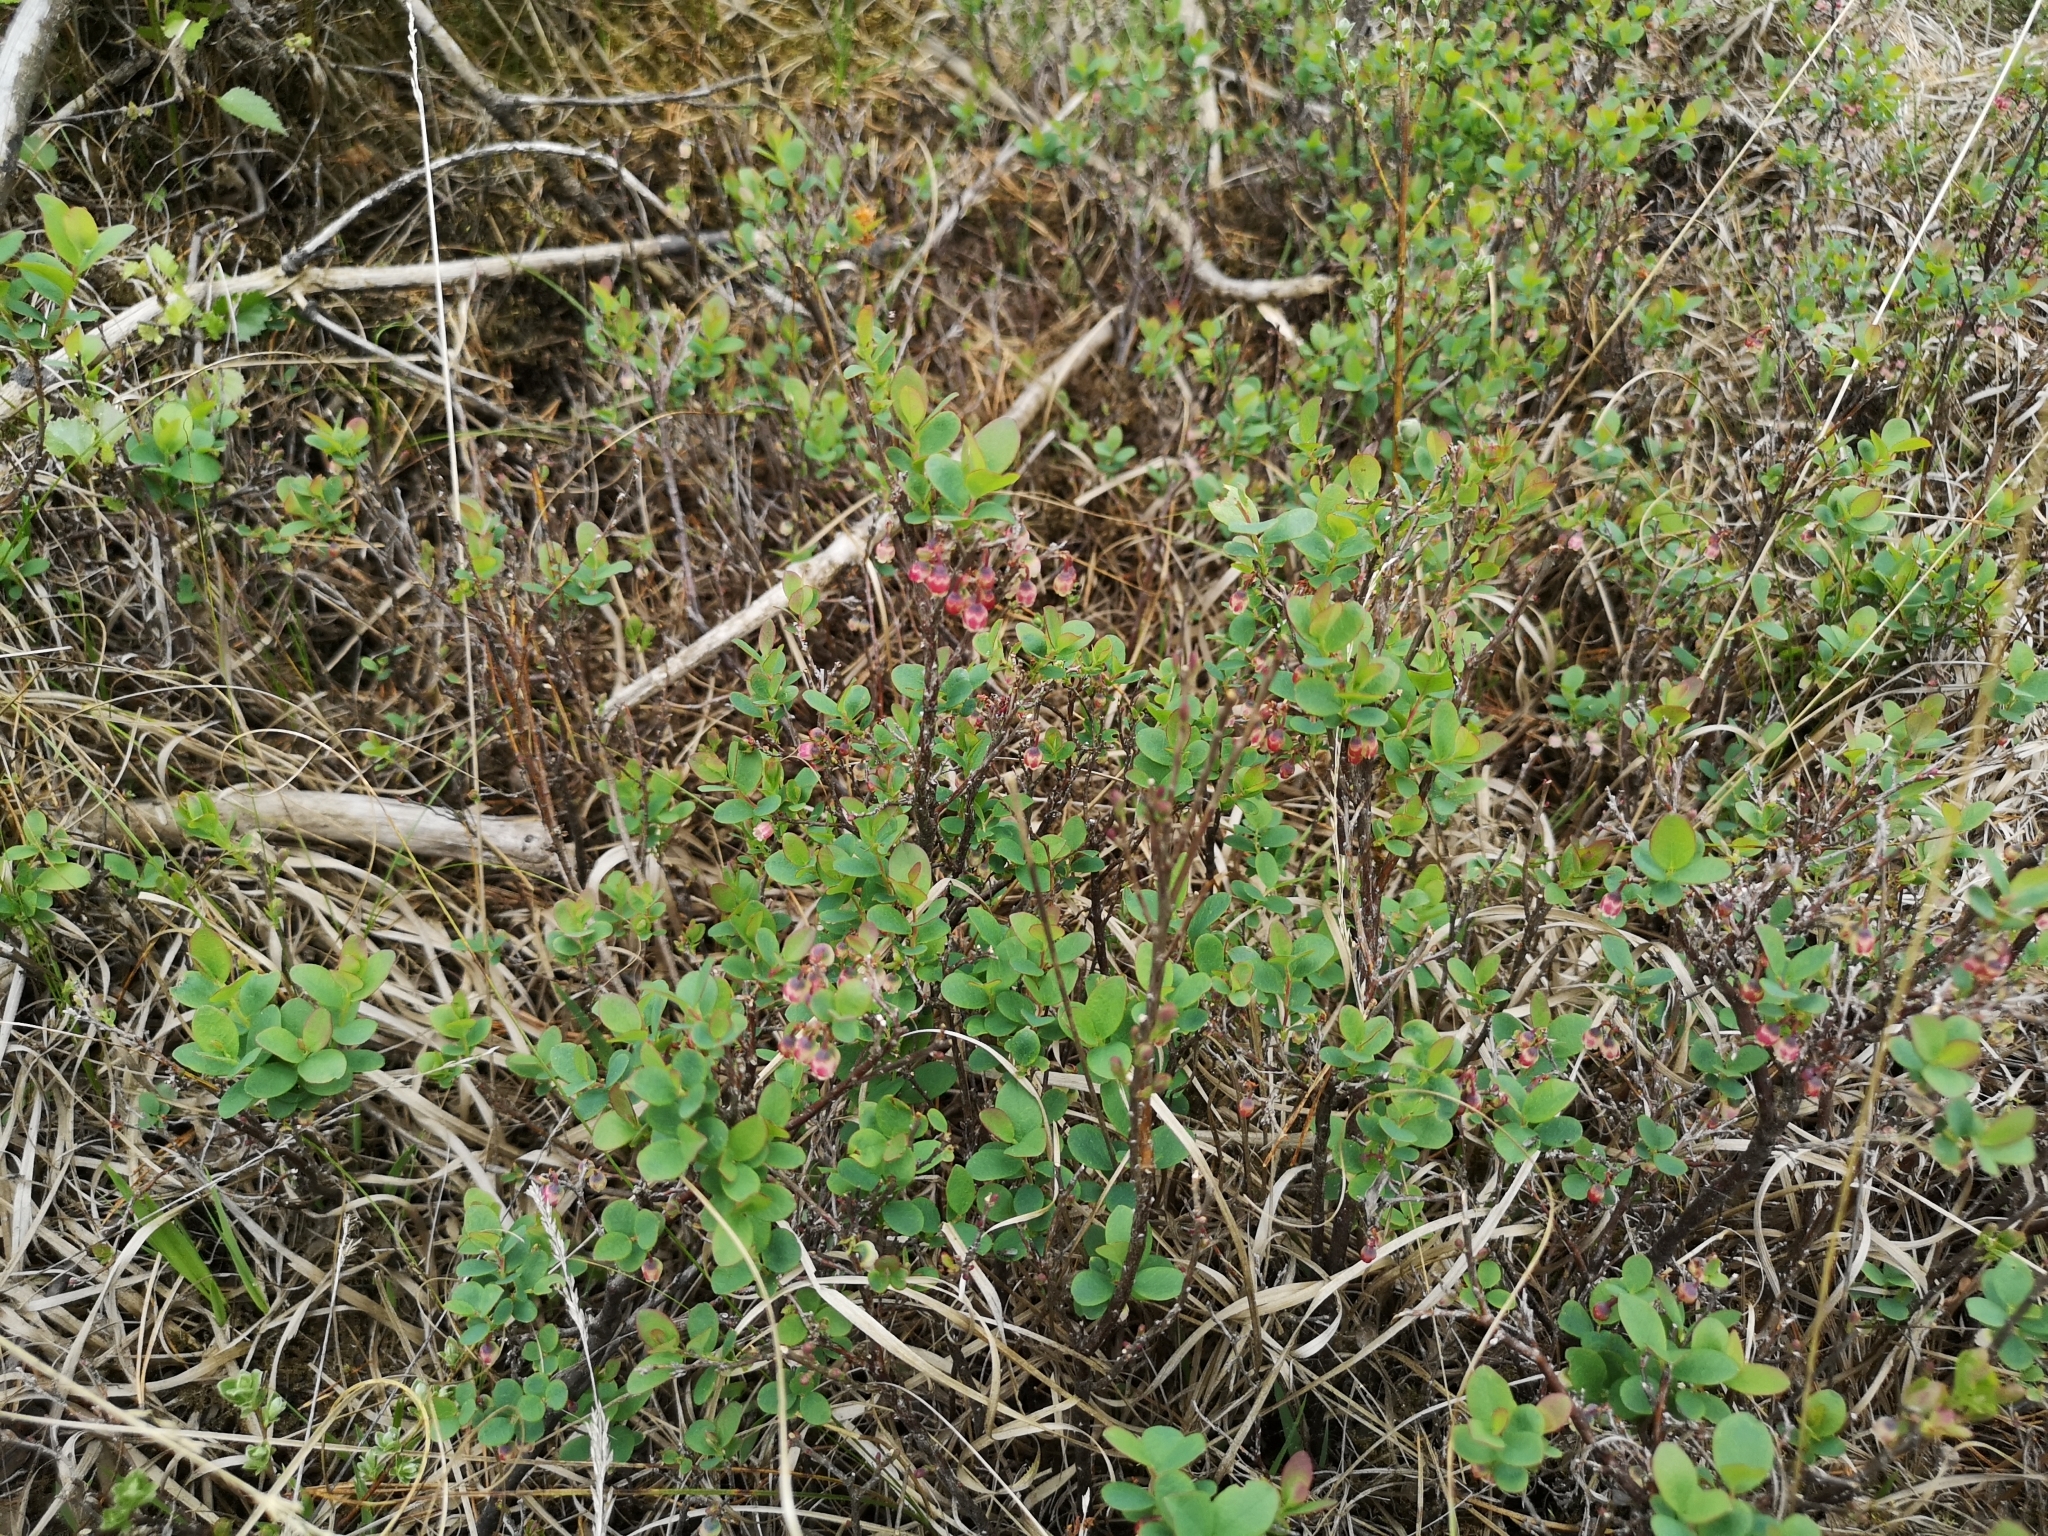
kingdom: Plantae
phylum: Tracheophyta
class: Magnoliopsida
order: Ericales
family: Ericaceae
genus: Vaccinium
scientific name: Vaccinium uliginosum
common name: Bog bilberry
